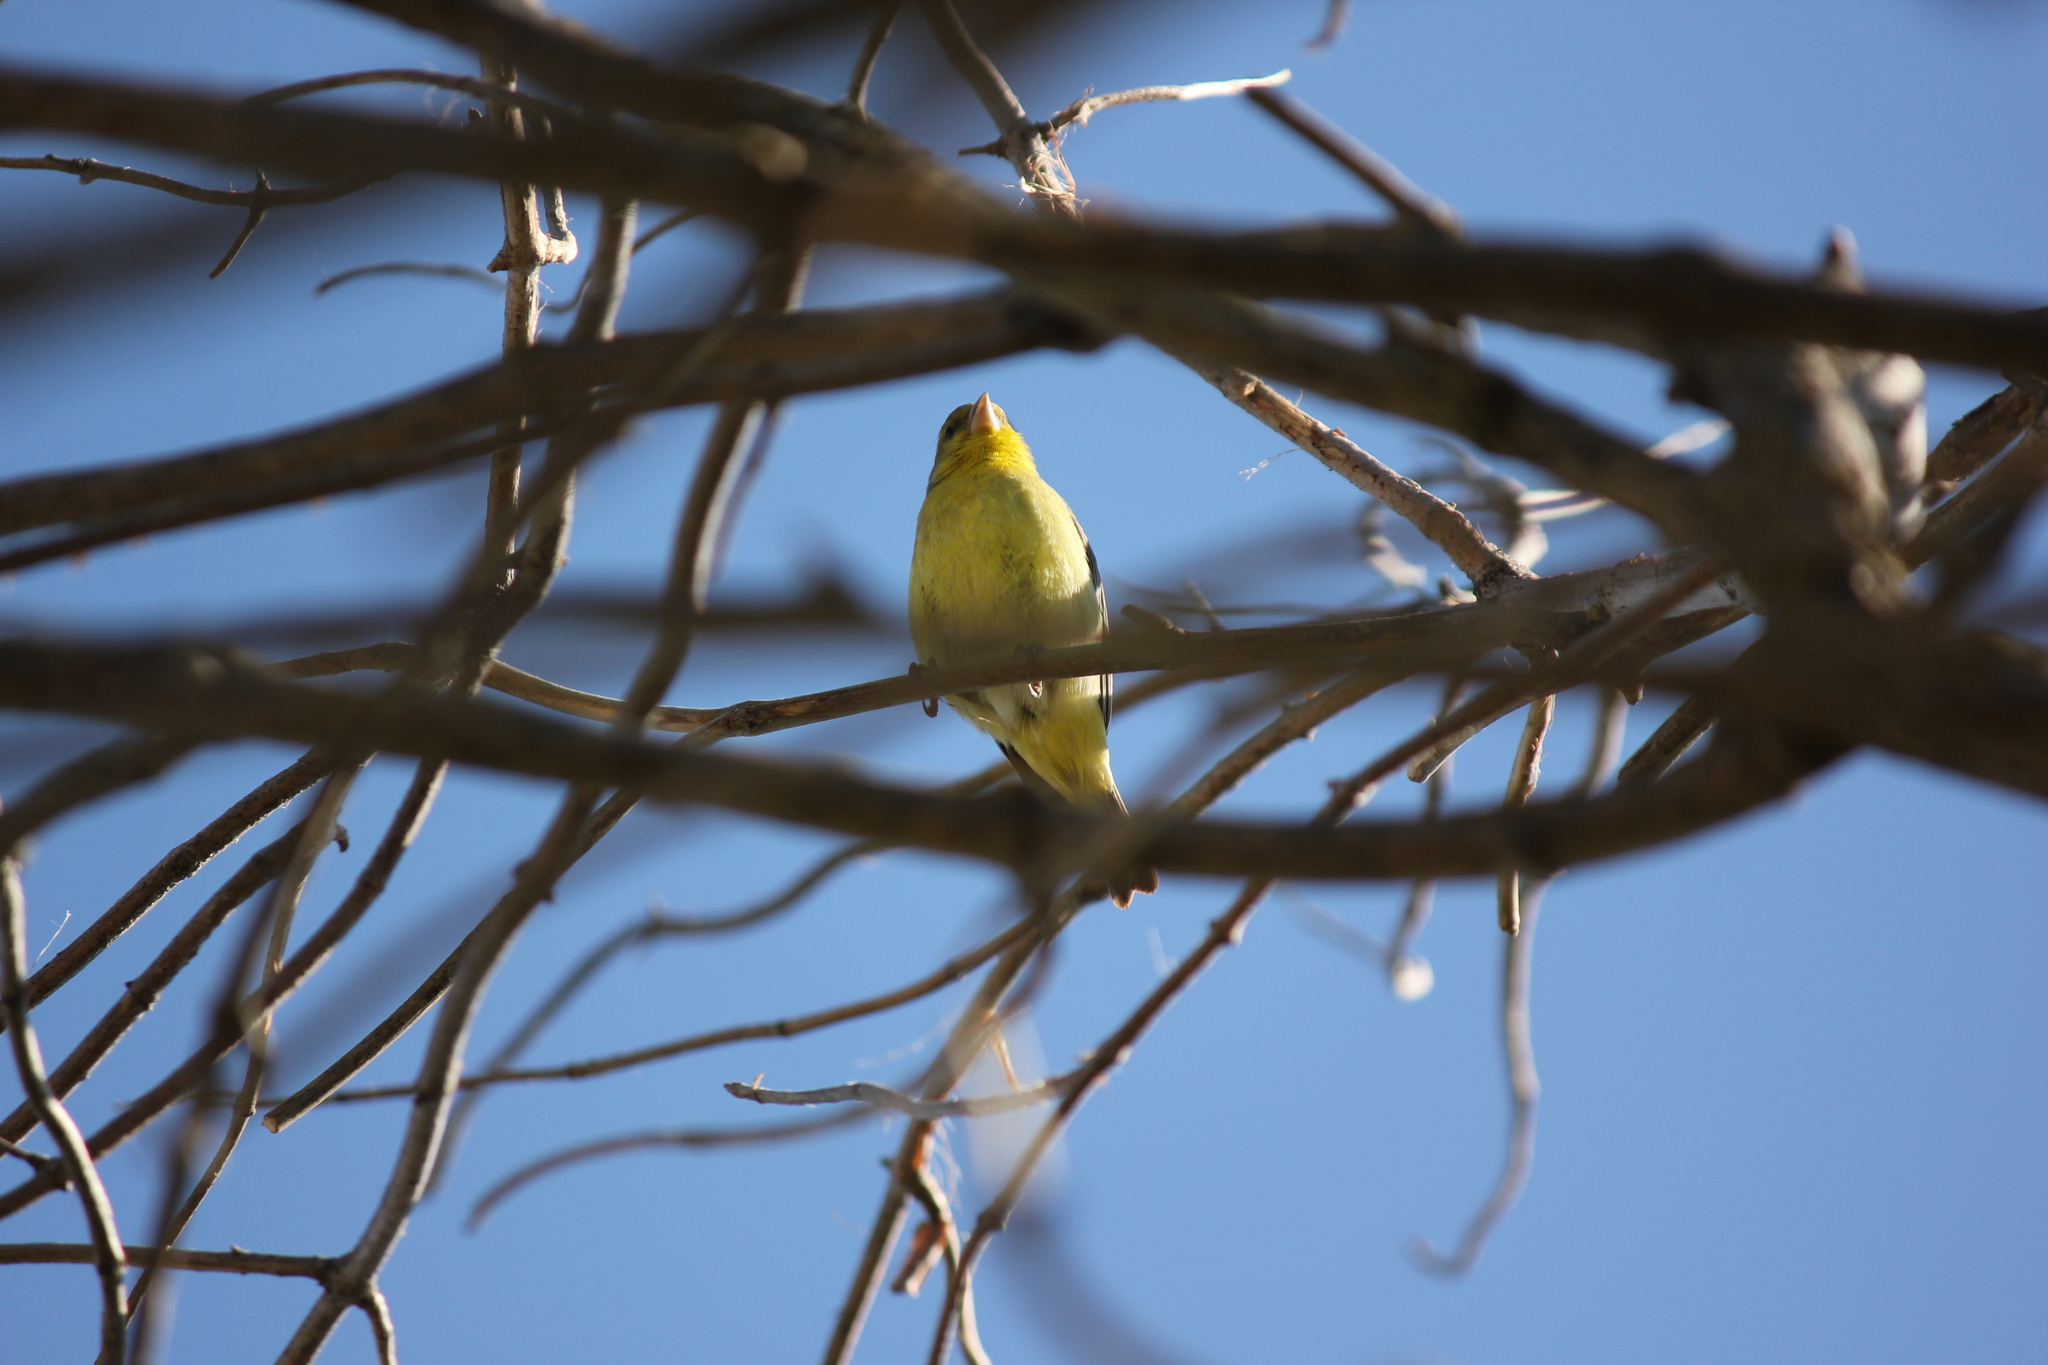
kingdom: Animalia
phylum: Chordata
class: Aves
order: Passeriformes
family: Fringillidae
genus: Spinus
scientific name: Spinus psaltria
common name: Lesser goldfinch
